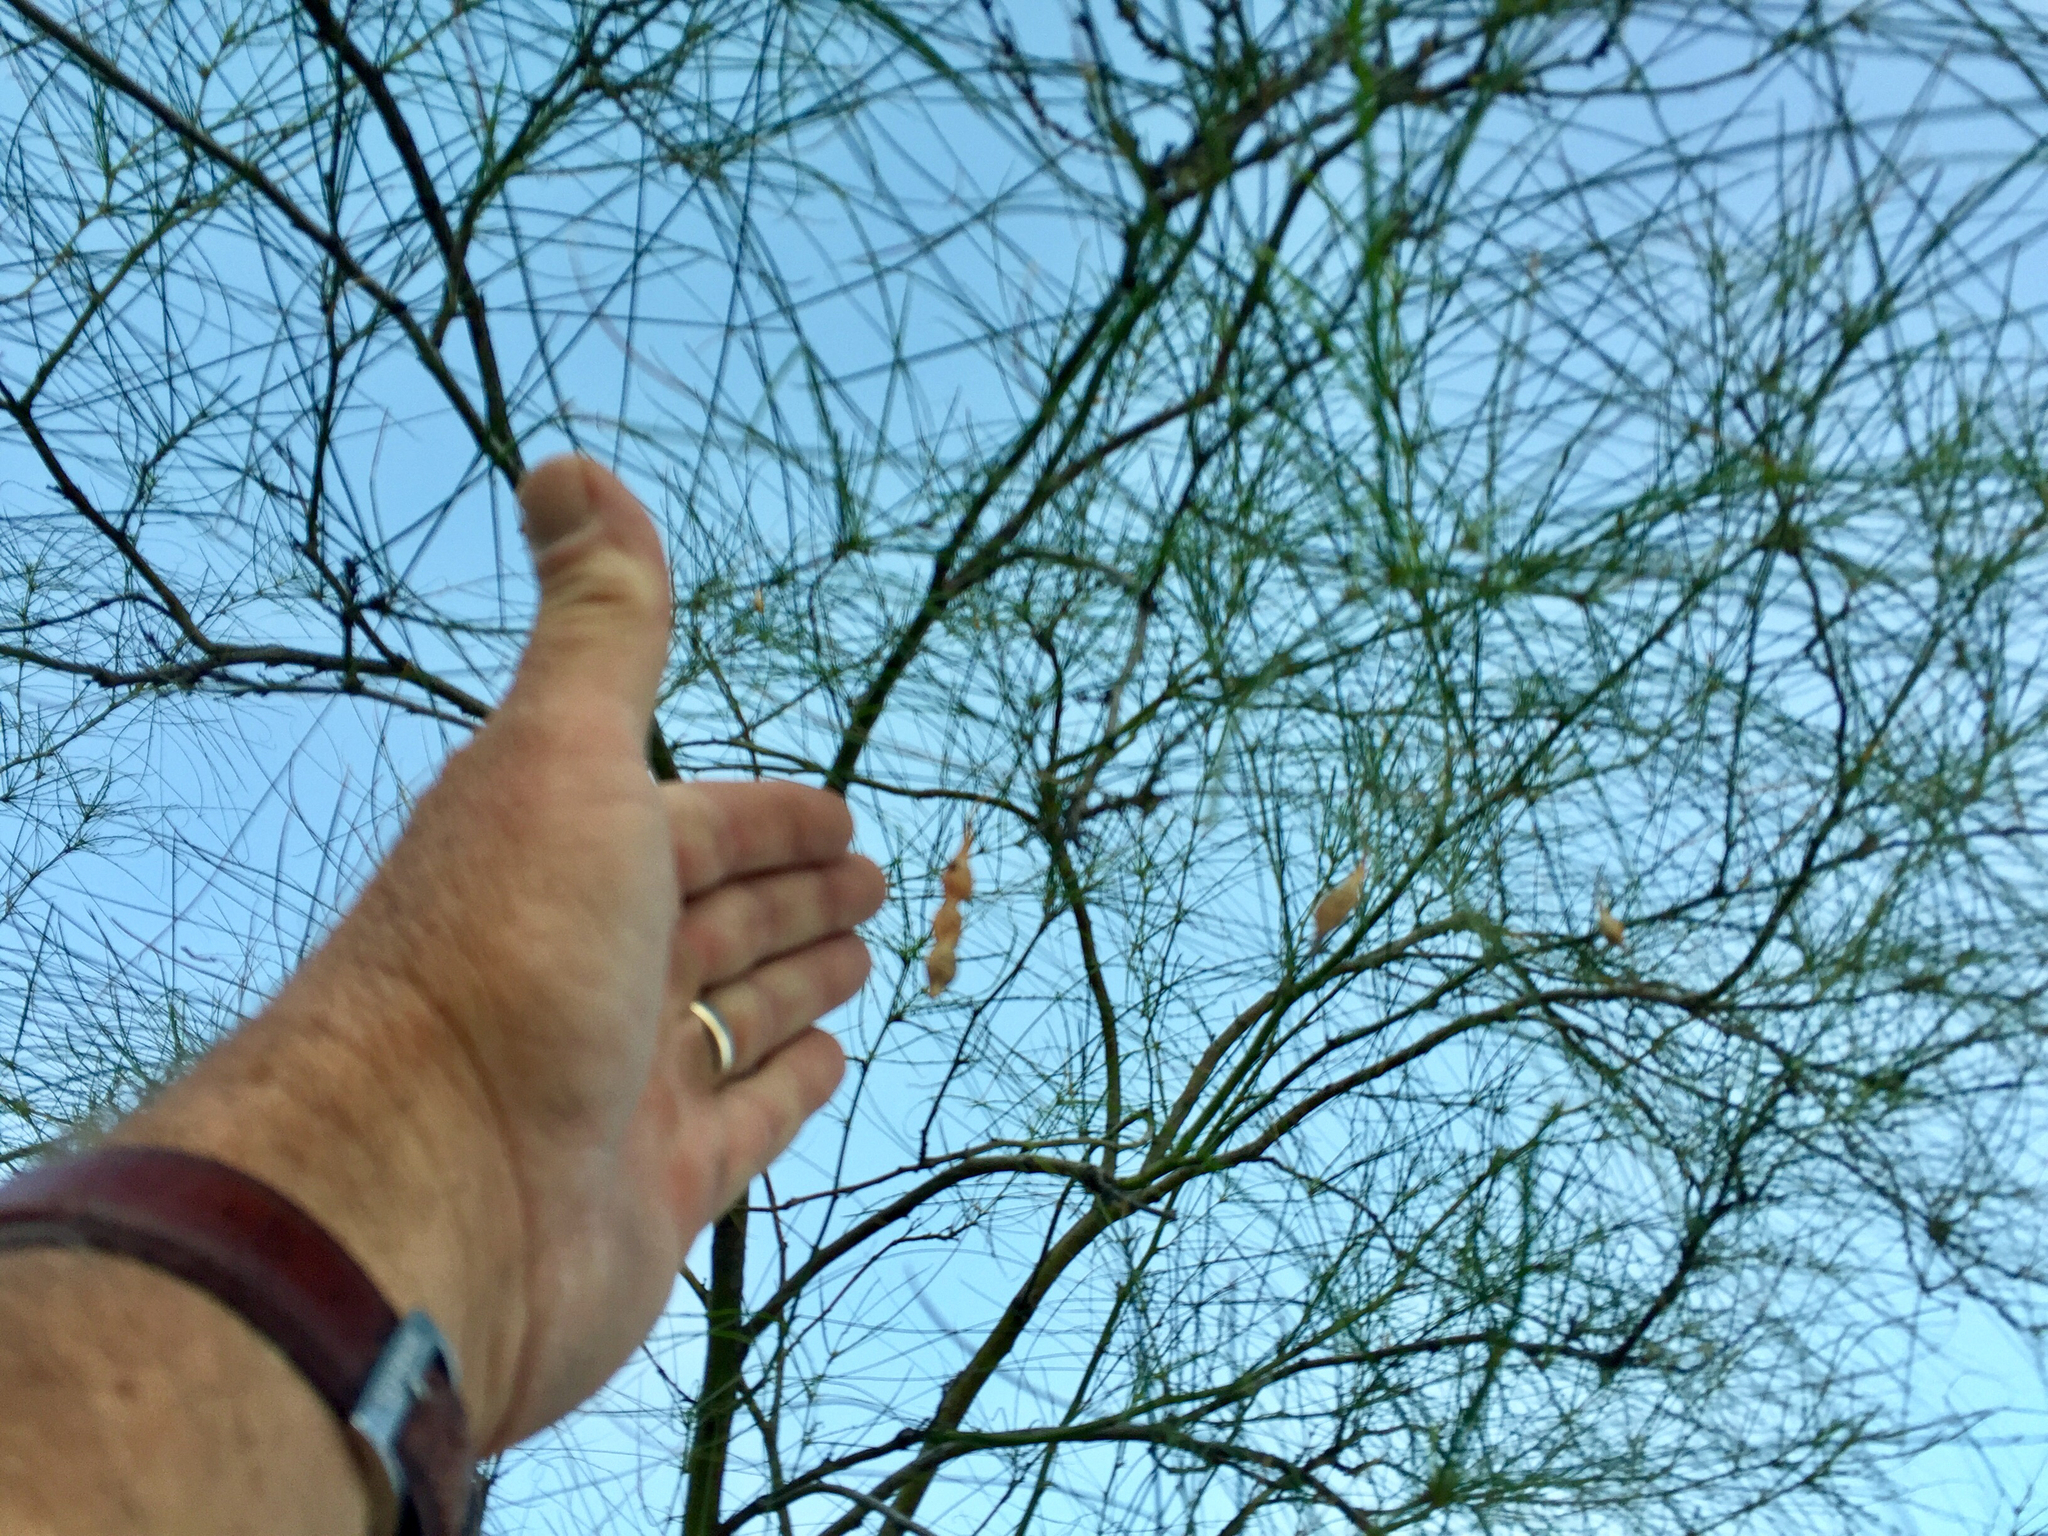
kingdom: Plantae
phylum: Tracheophyta
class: Magnoliopsida
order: Fabales
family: Fabaceae
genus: Parkinsonia
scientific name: Parkinsonia aculeata
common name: Jerusalem thorn
